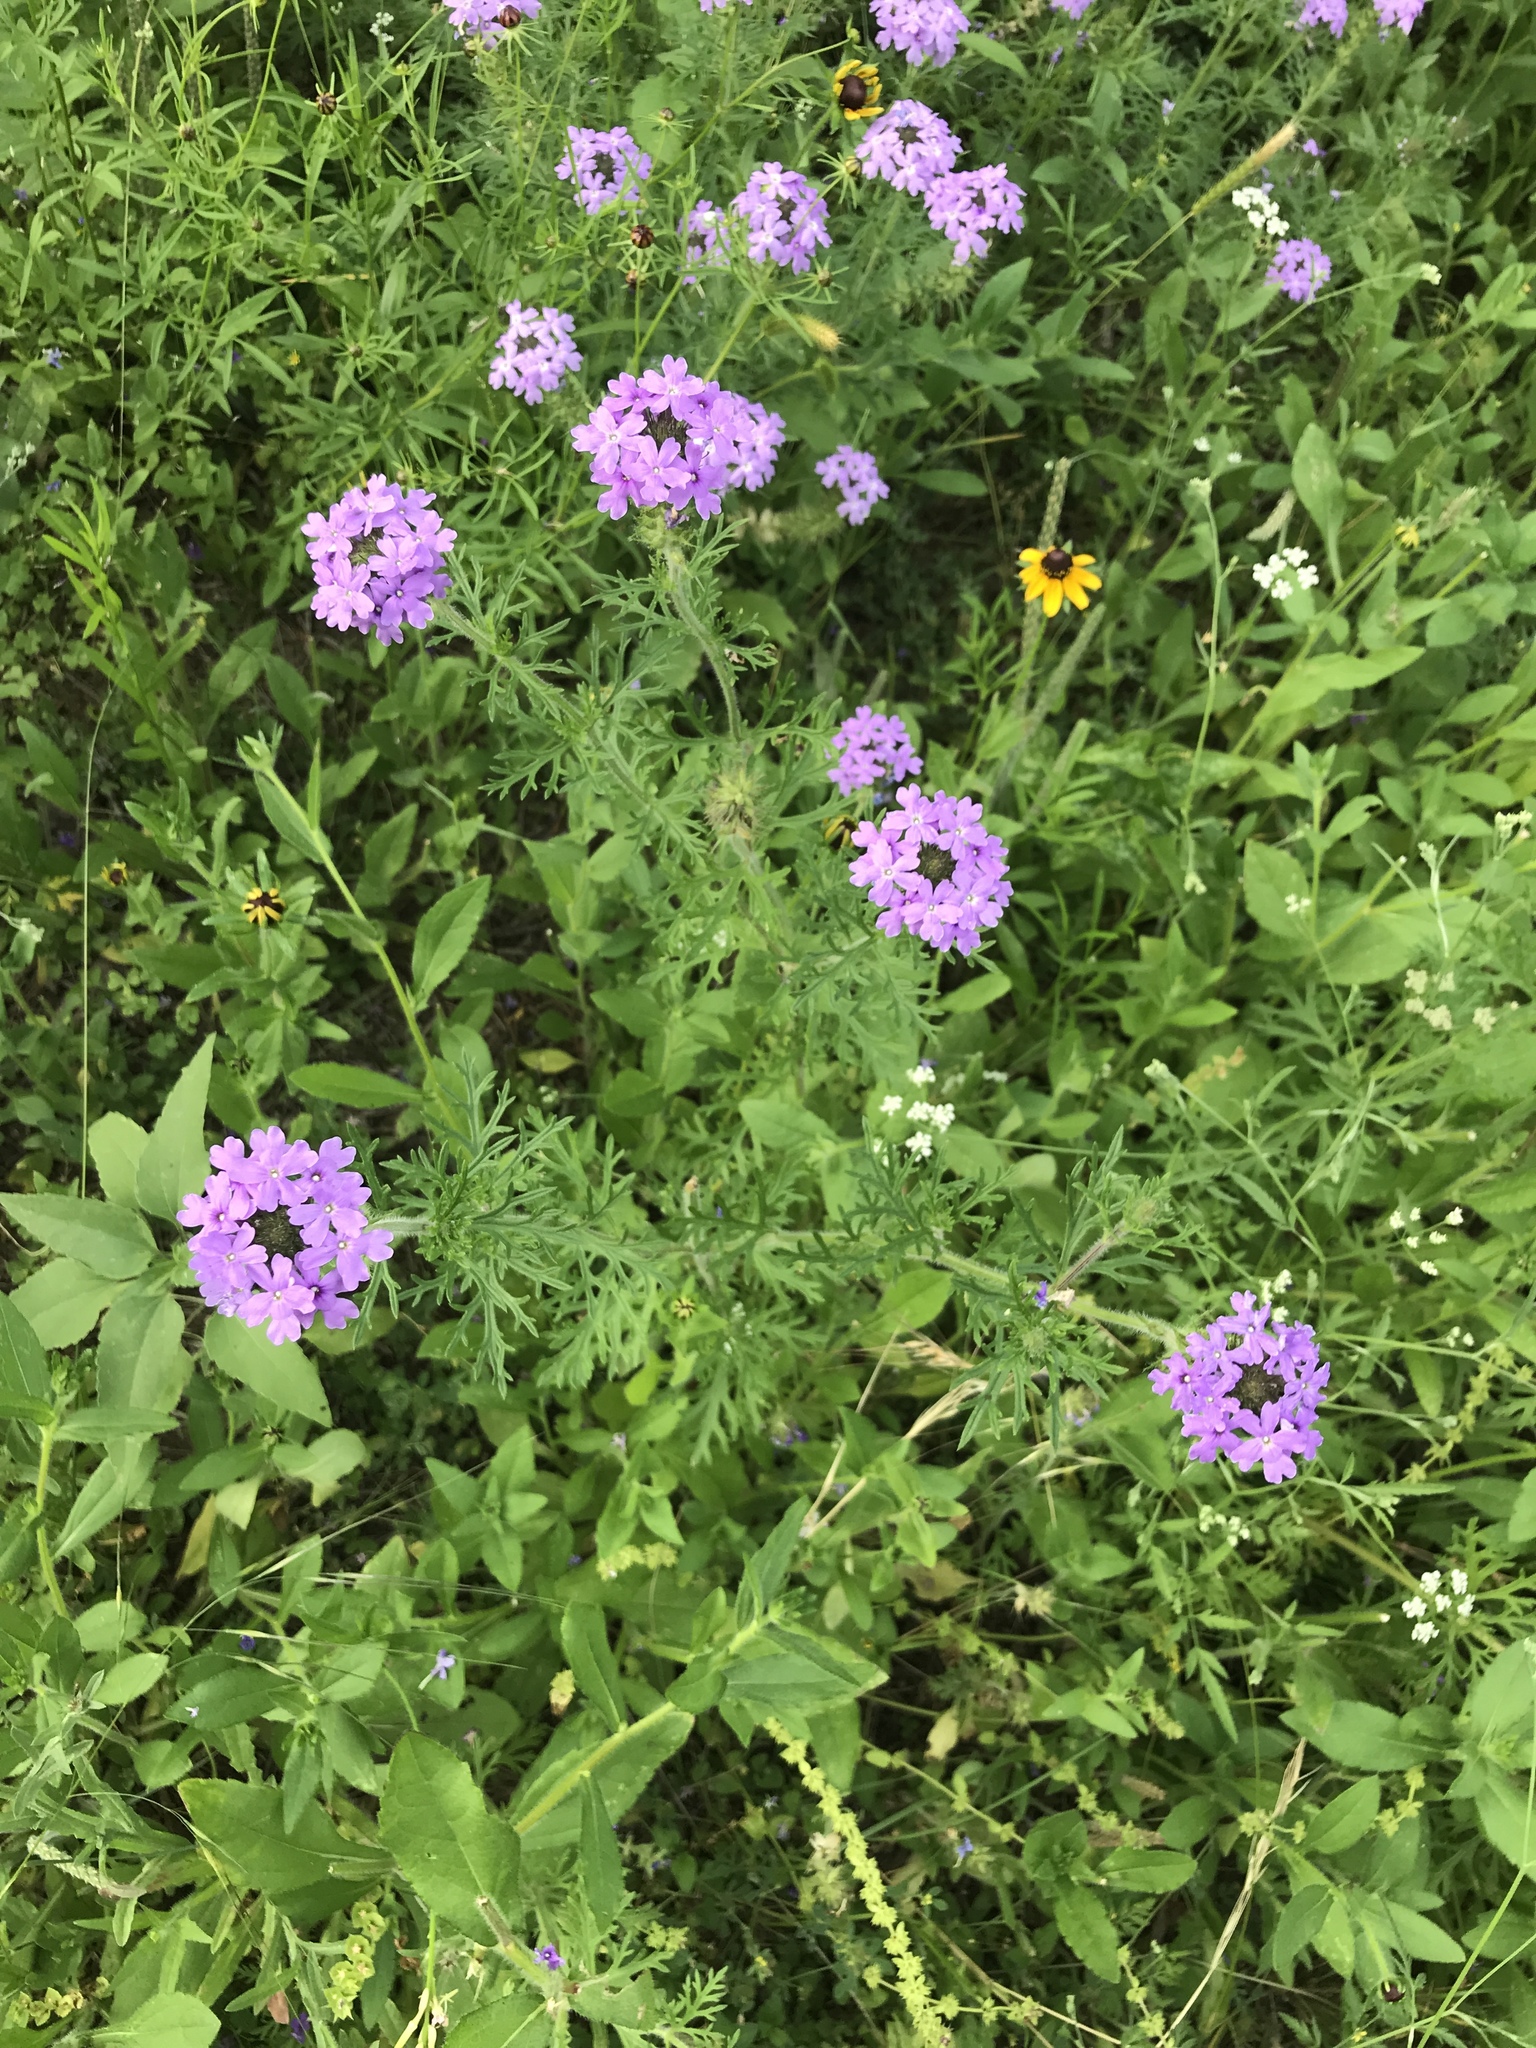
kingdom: Plantae
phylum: Tracheophyta
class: Magnoliopsida
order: Lamiales
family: Verbenaceae
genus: Verbena
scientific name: Verbena bipinnatifida
